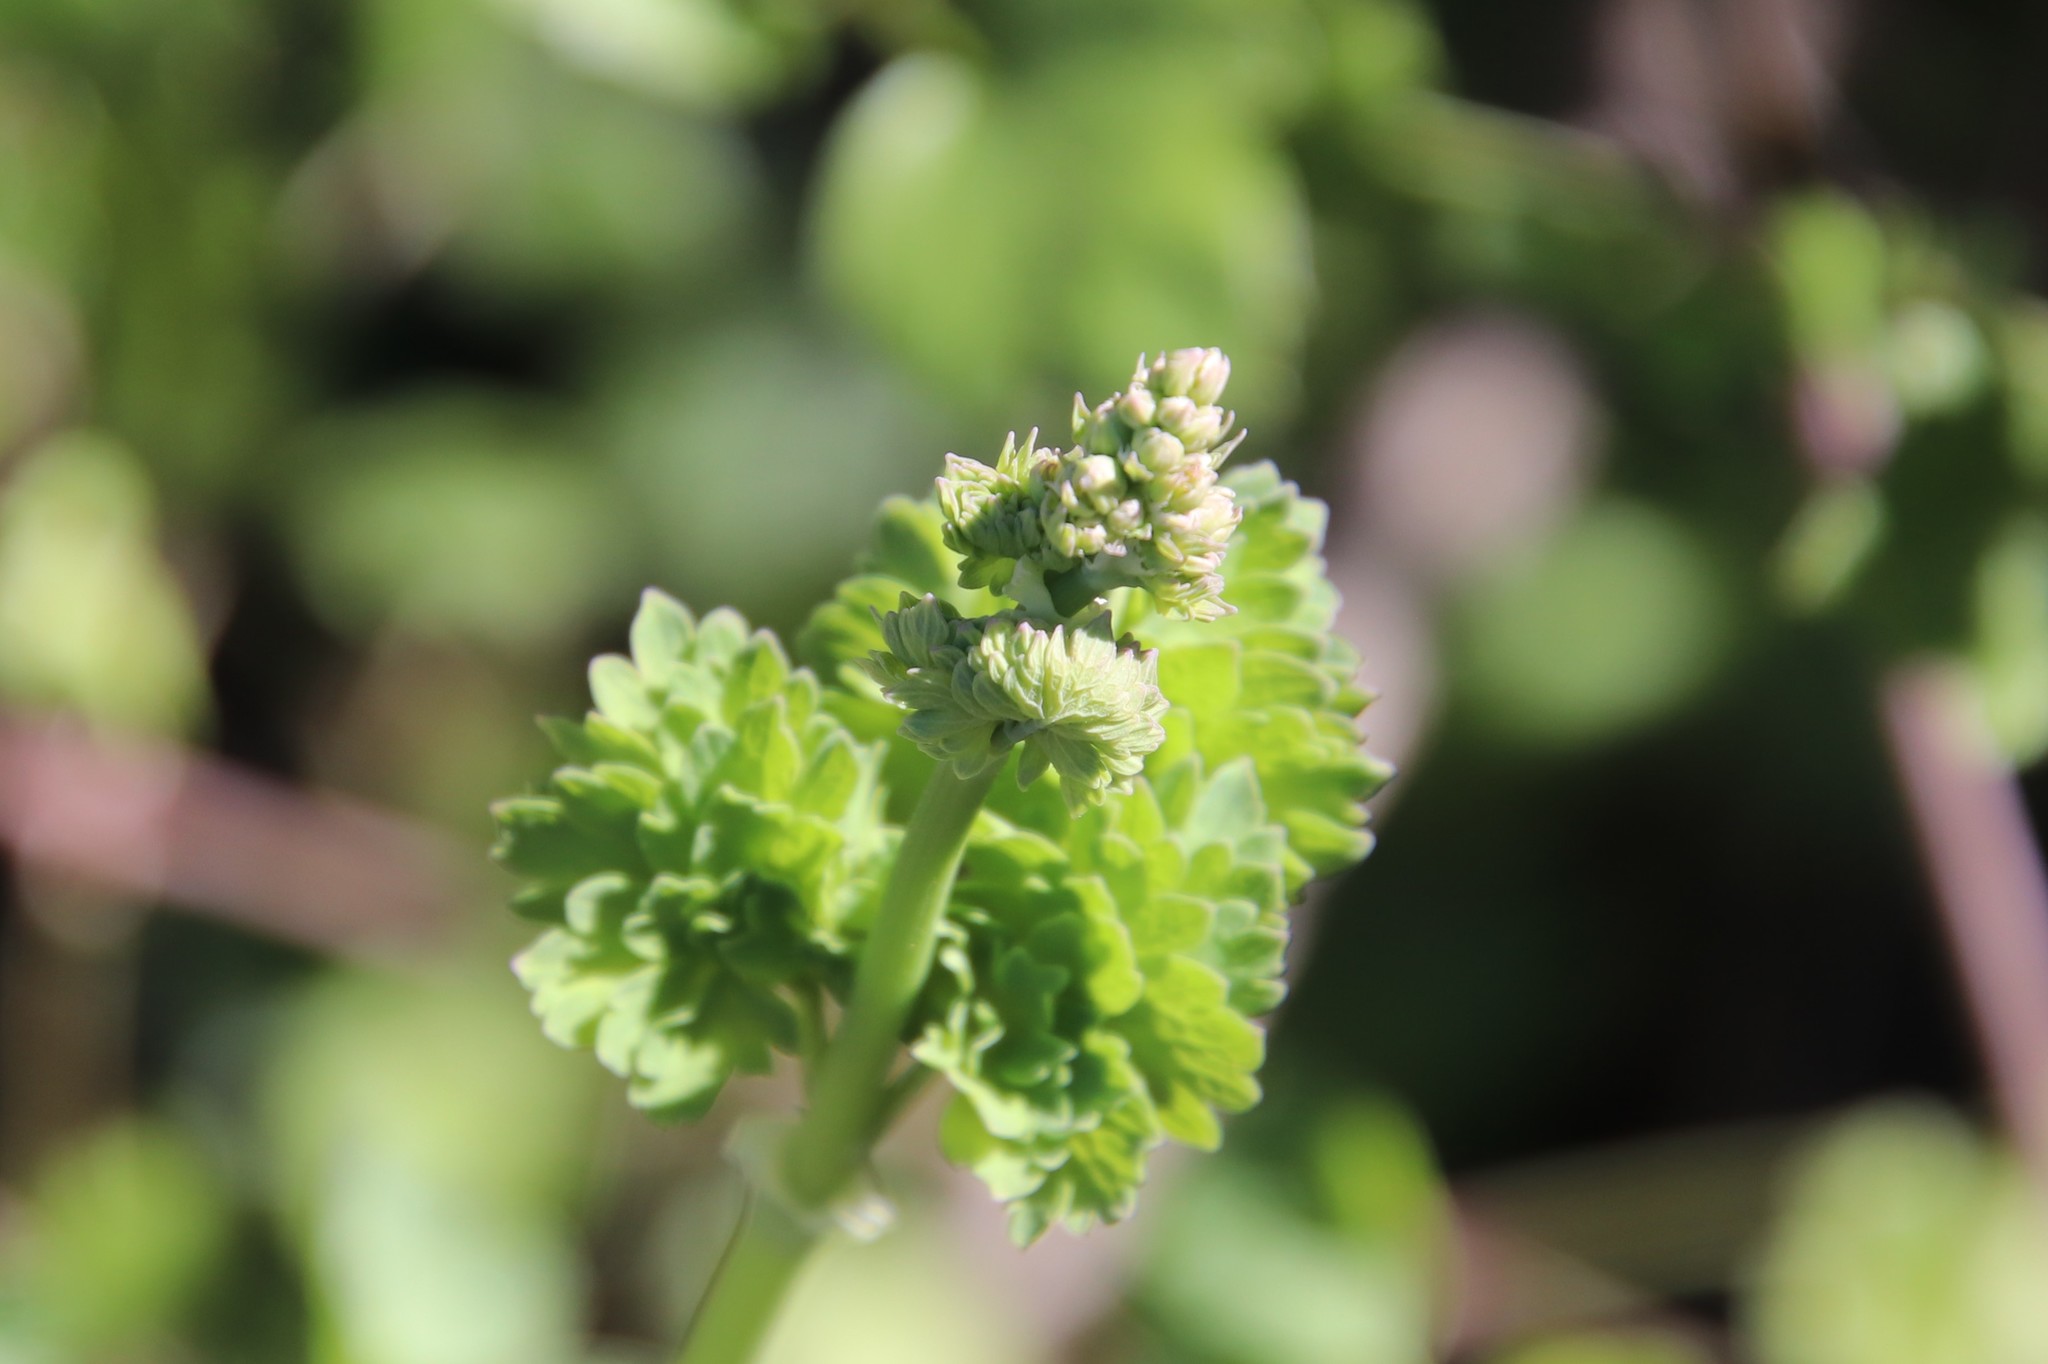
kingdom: Plantae
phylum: Tracheophyta
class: Magnoliopsida
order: Ranunculales
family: Ranunculaceae
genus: Thalictrum
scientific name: Thalictrum fendleri
